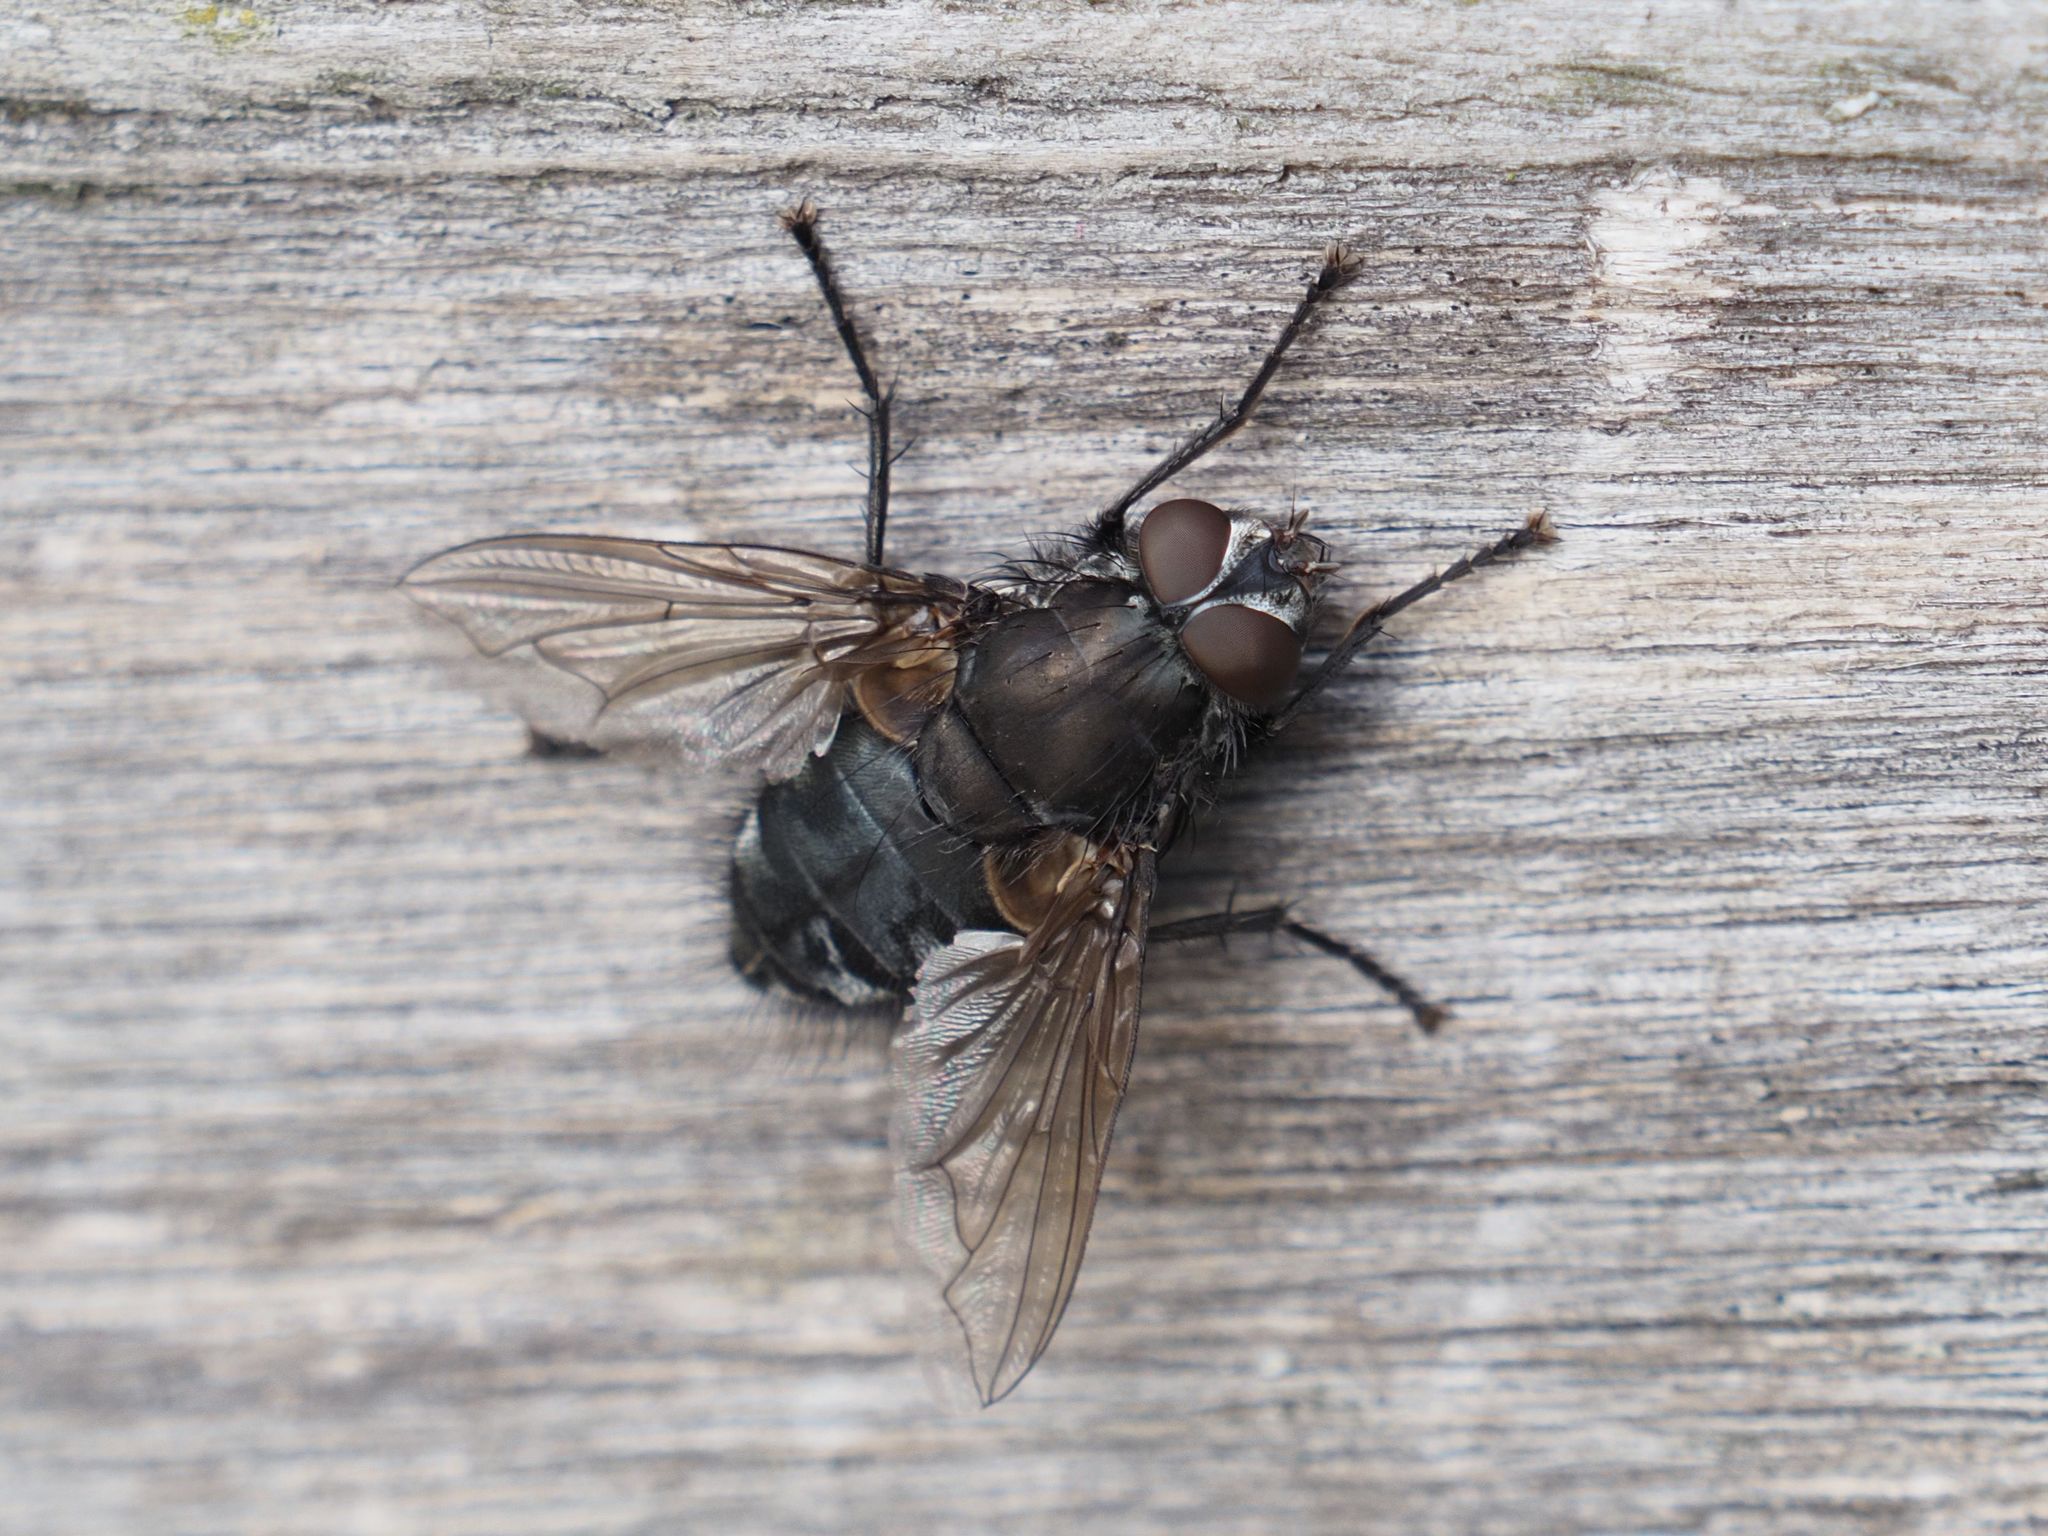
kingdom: Animalia
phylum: Arthropoda
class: Insecta
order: Diptera
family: Polleniidae
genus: Pollenia
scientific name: Pollenia vagabunda
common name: Vagabund cluster fly
